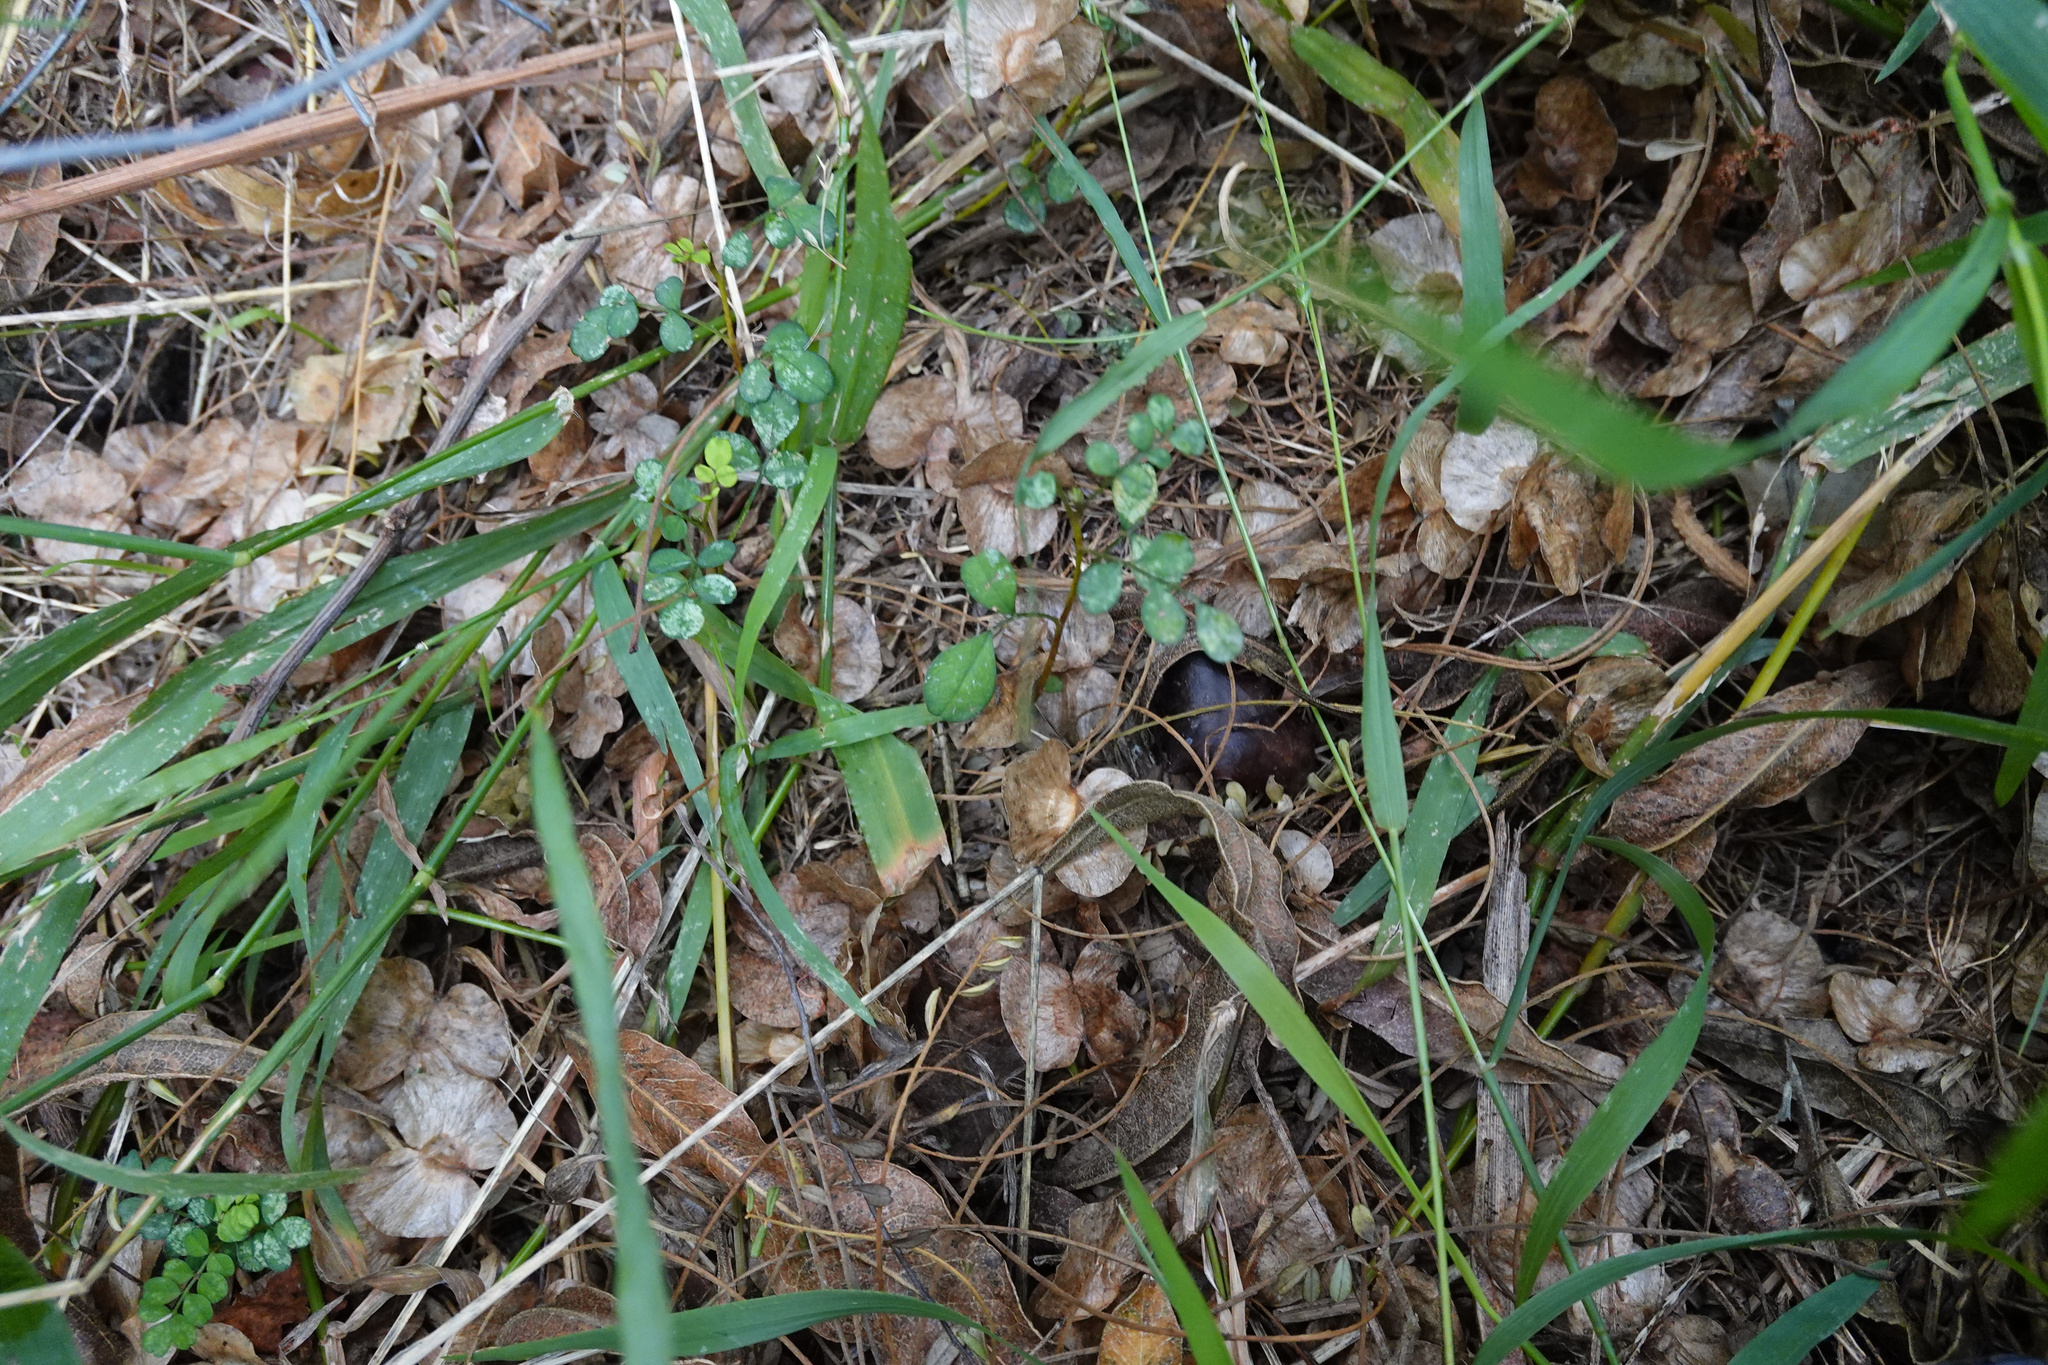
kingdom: Plantae
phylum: Tracheophyta
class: Magnoliopsida
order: Fabales
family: Fabaceae
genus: Sophora
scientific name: Sophora microphylla
